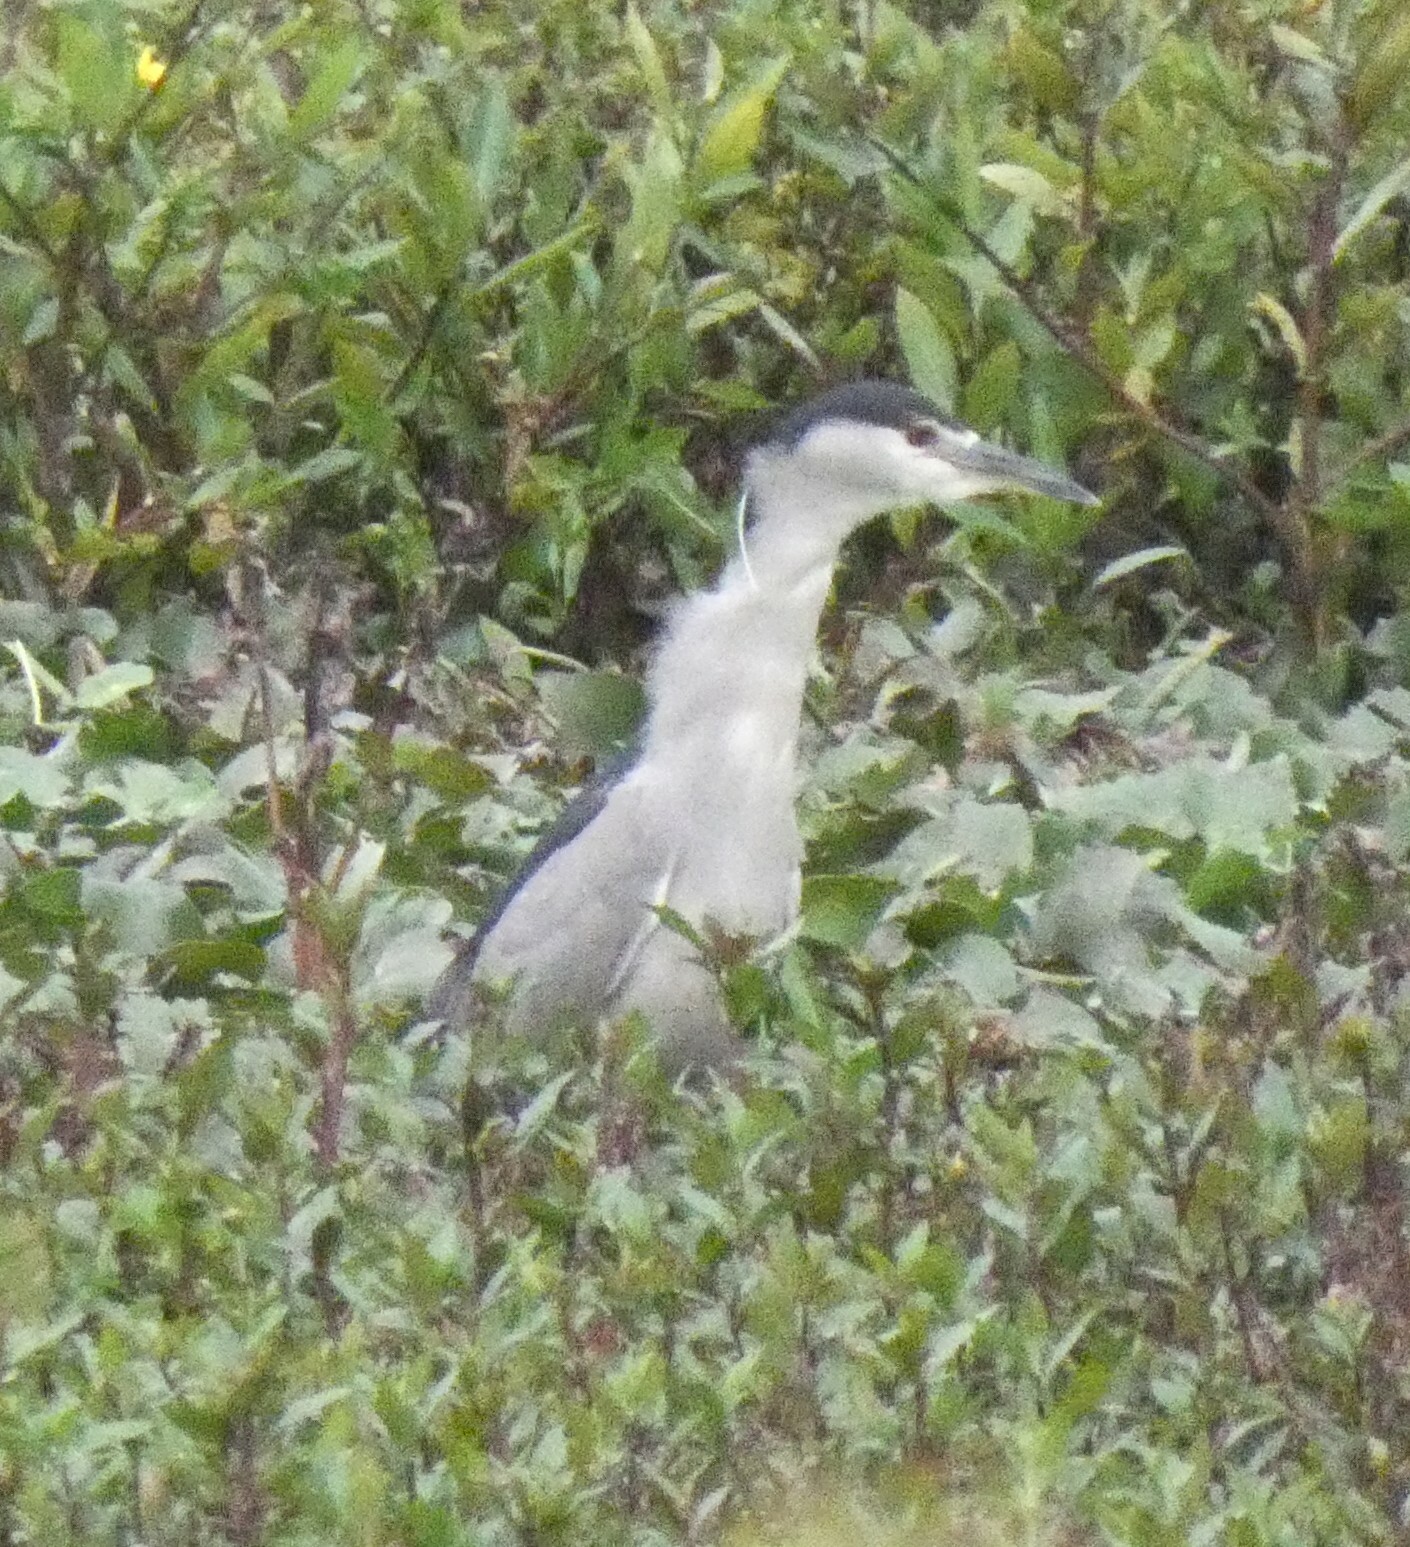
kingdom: Animalia
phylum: Chordata
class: Aves
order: Pelecaniformes
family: Ardeidae
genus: Nycticorax
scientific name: Nycticorax nycticorax
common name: Black-crowned night heron
